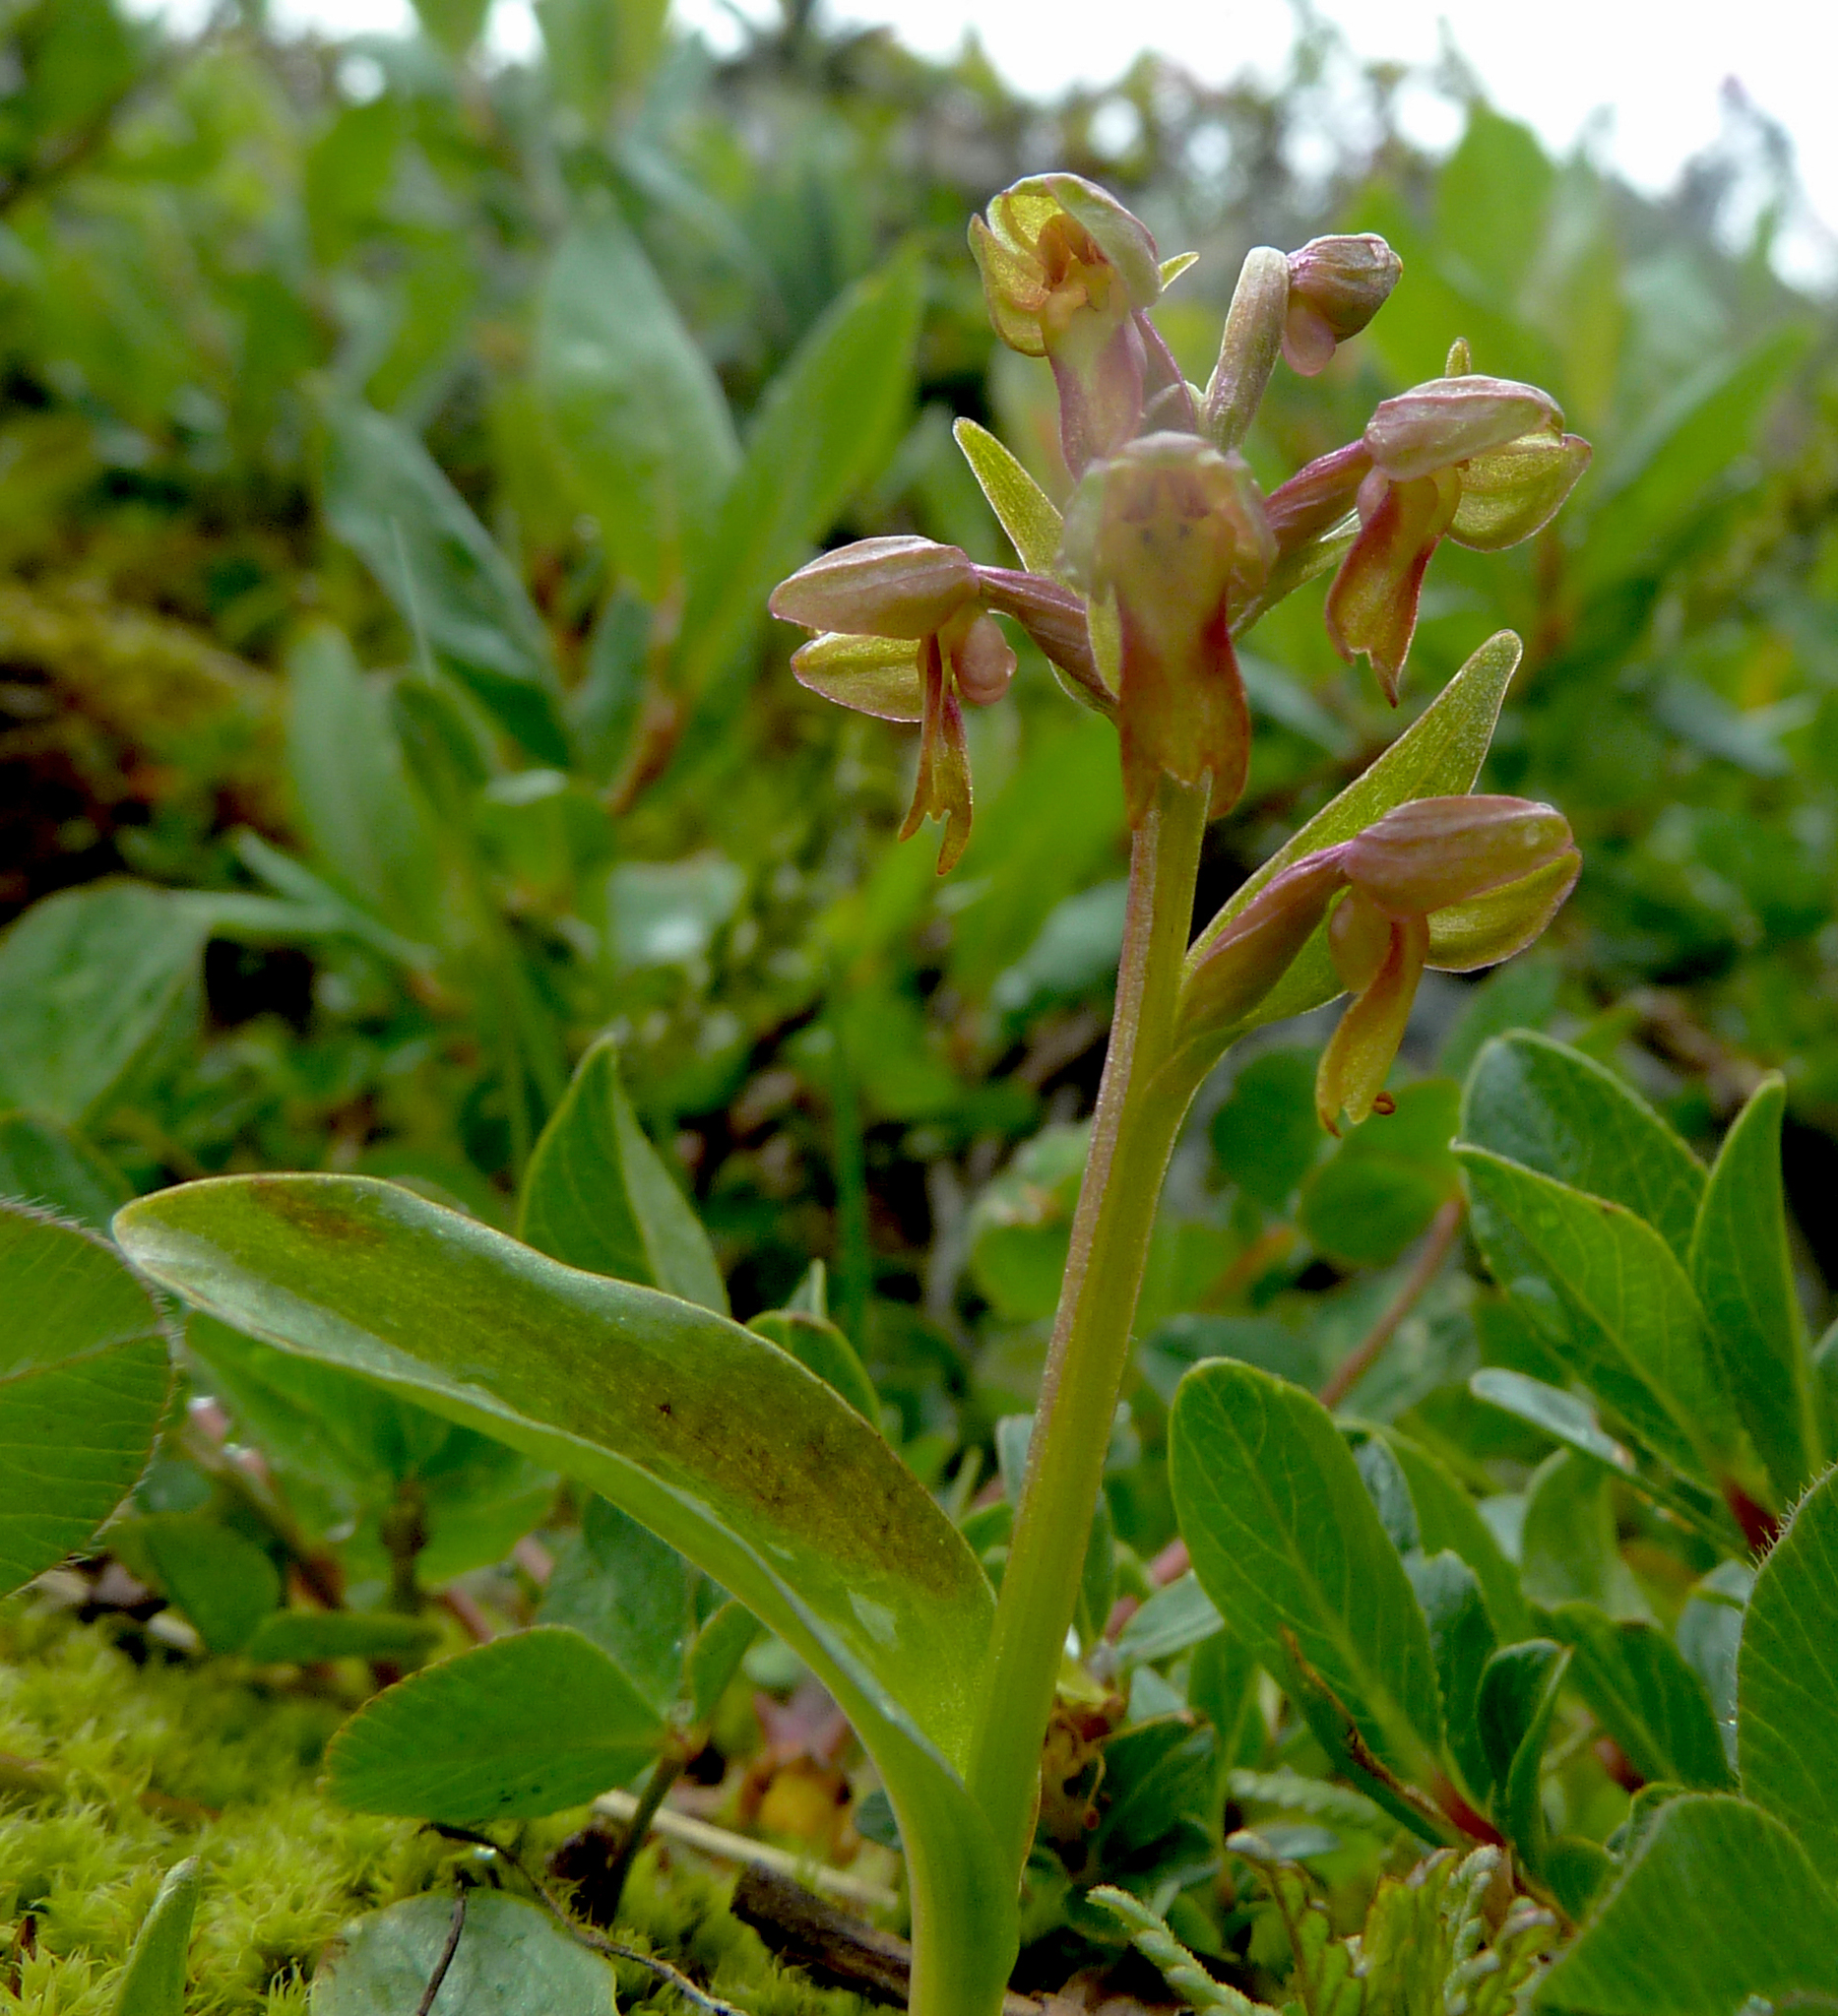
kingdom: Plantae
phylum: Tracheophyta
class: Liliopsida
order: Asparagales
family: Orchidaceae
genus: Dactylorhiza
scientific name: Dactylorhiza viridis
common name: Longbract frog orchid
